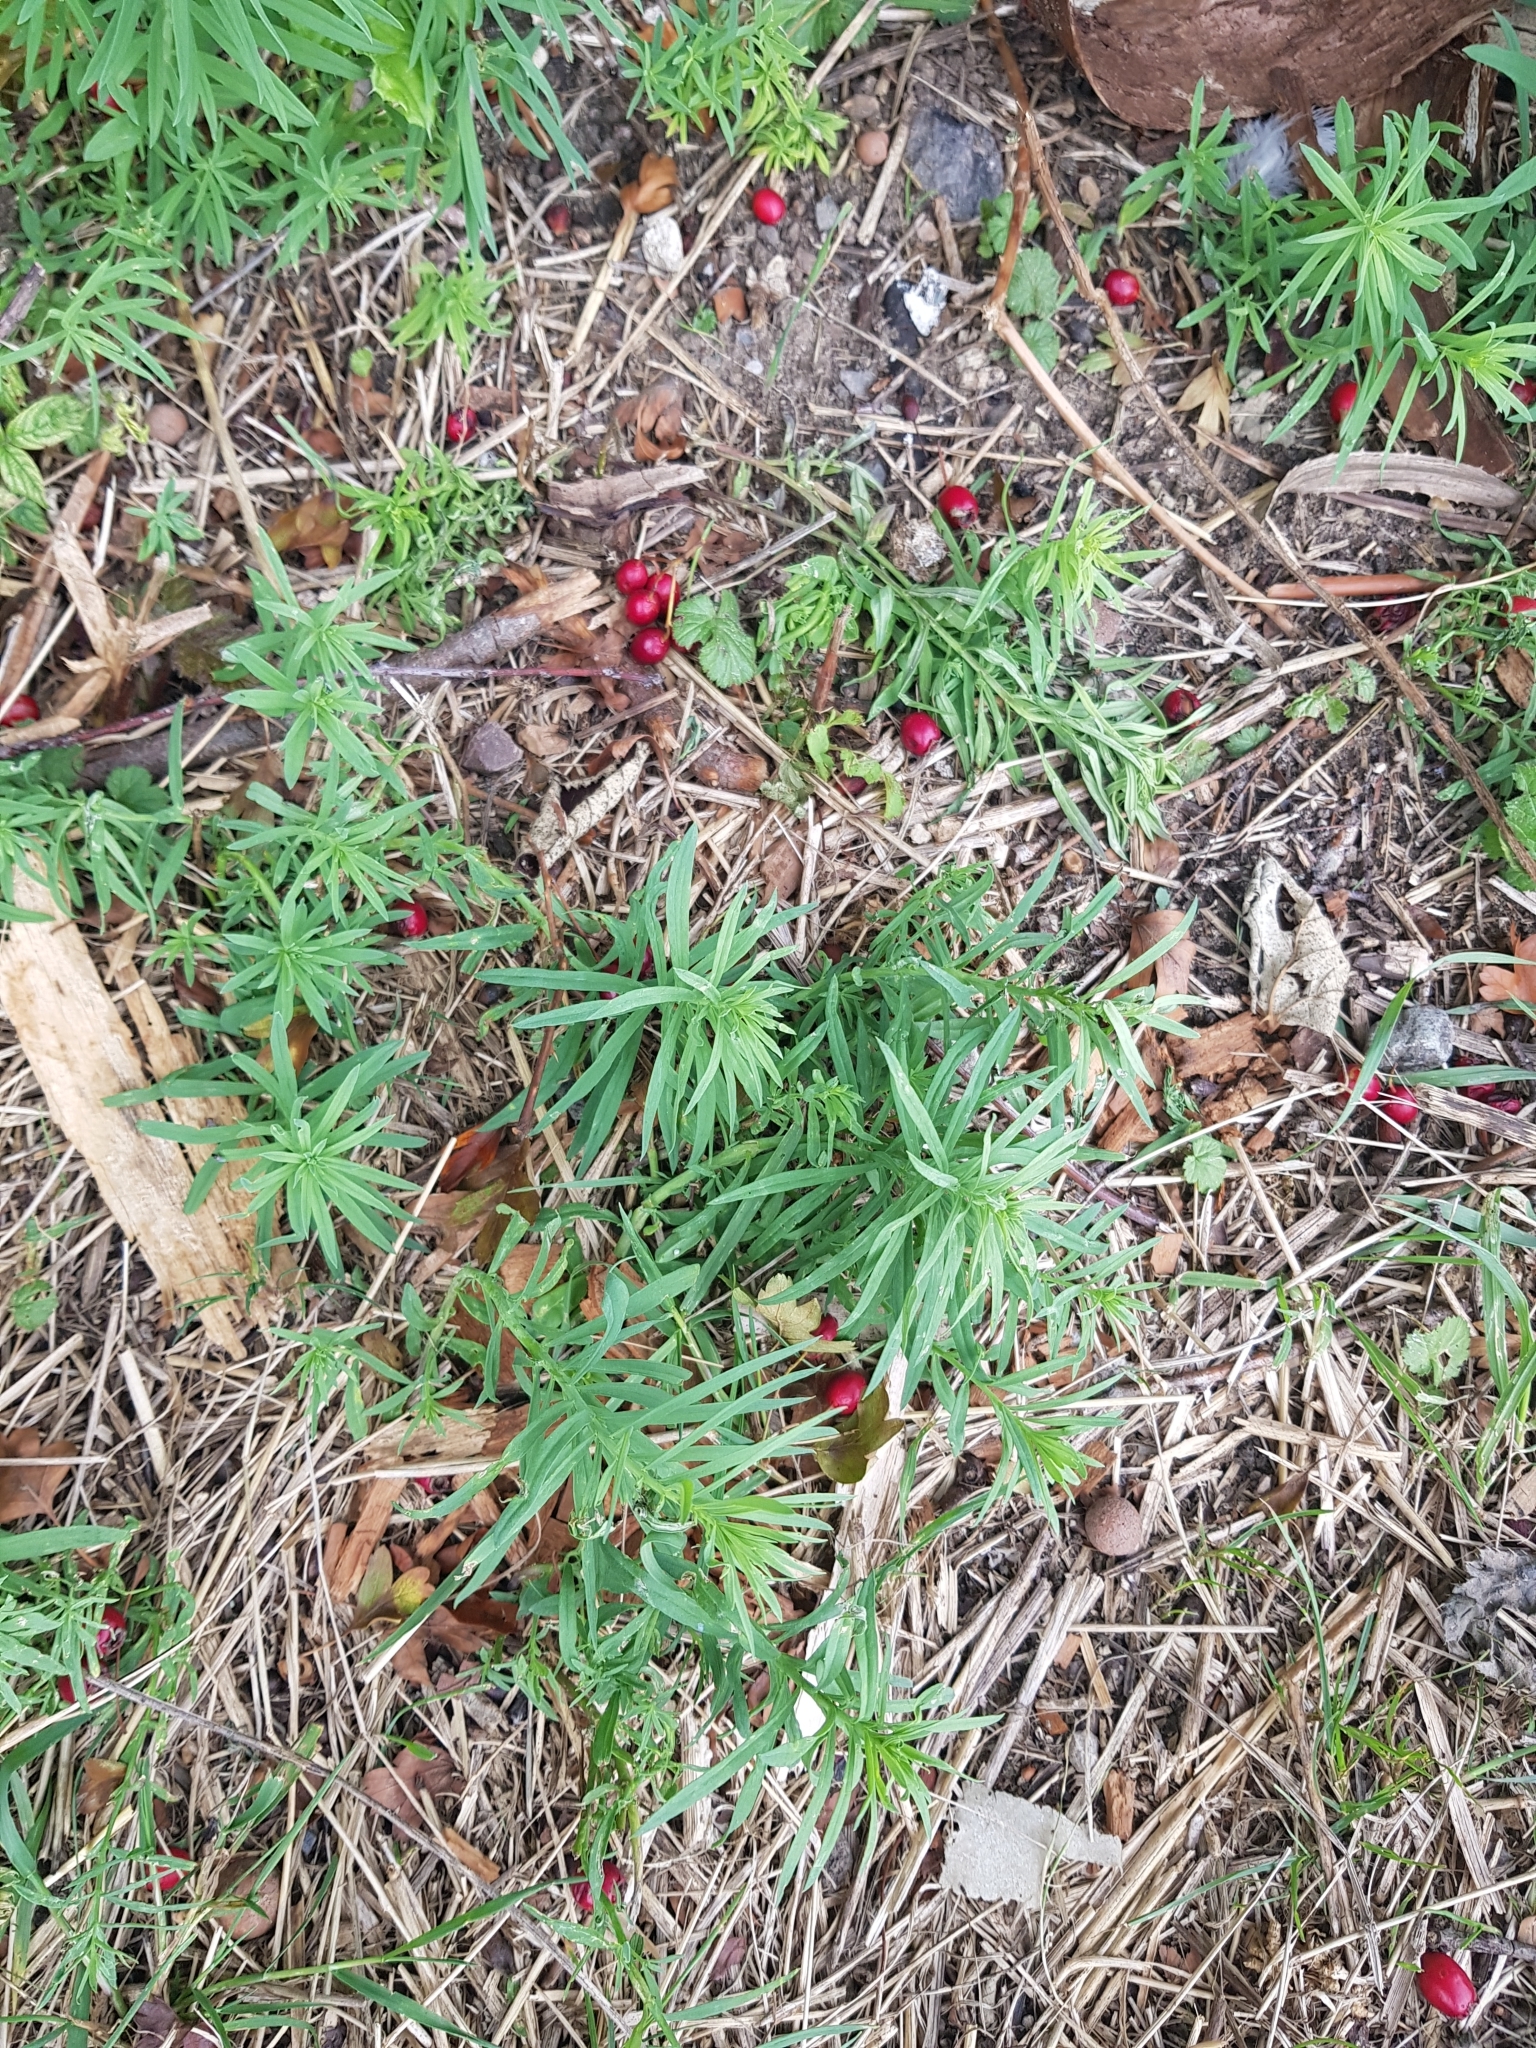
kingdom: Plantae
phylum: Tracheophyta
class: Magnoliopsida
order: Lamiales
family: Plantaginaceae
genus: Linaria
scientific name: Linaria vulgaris
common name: Butter and eggs
